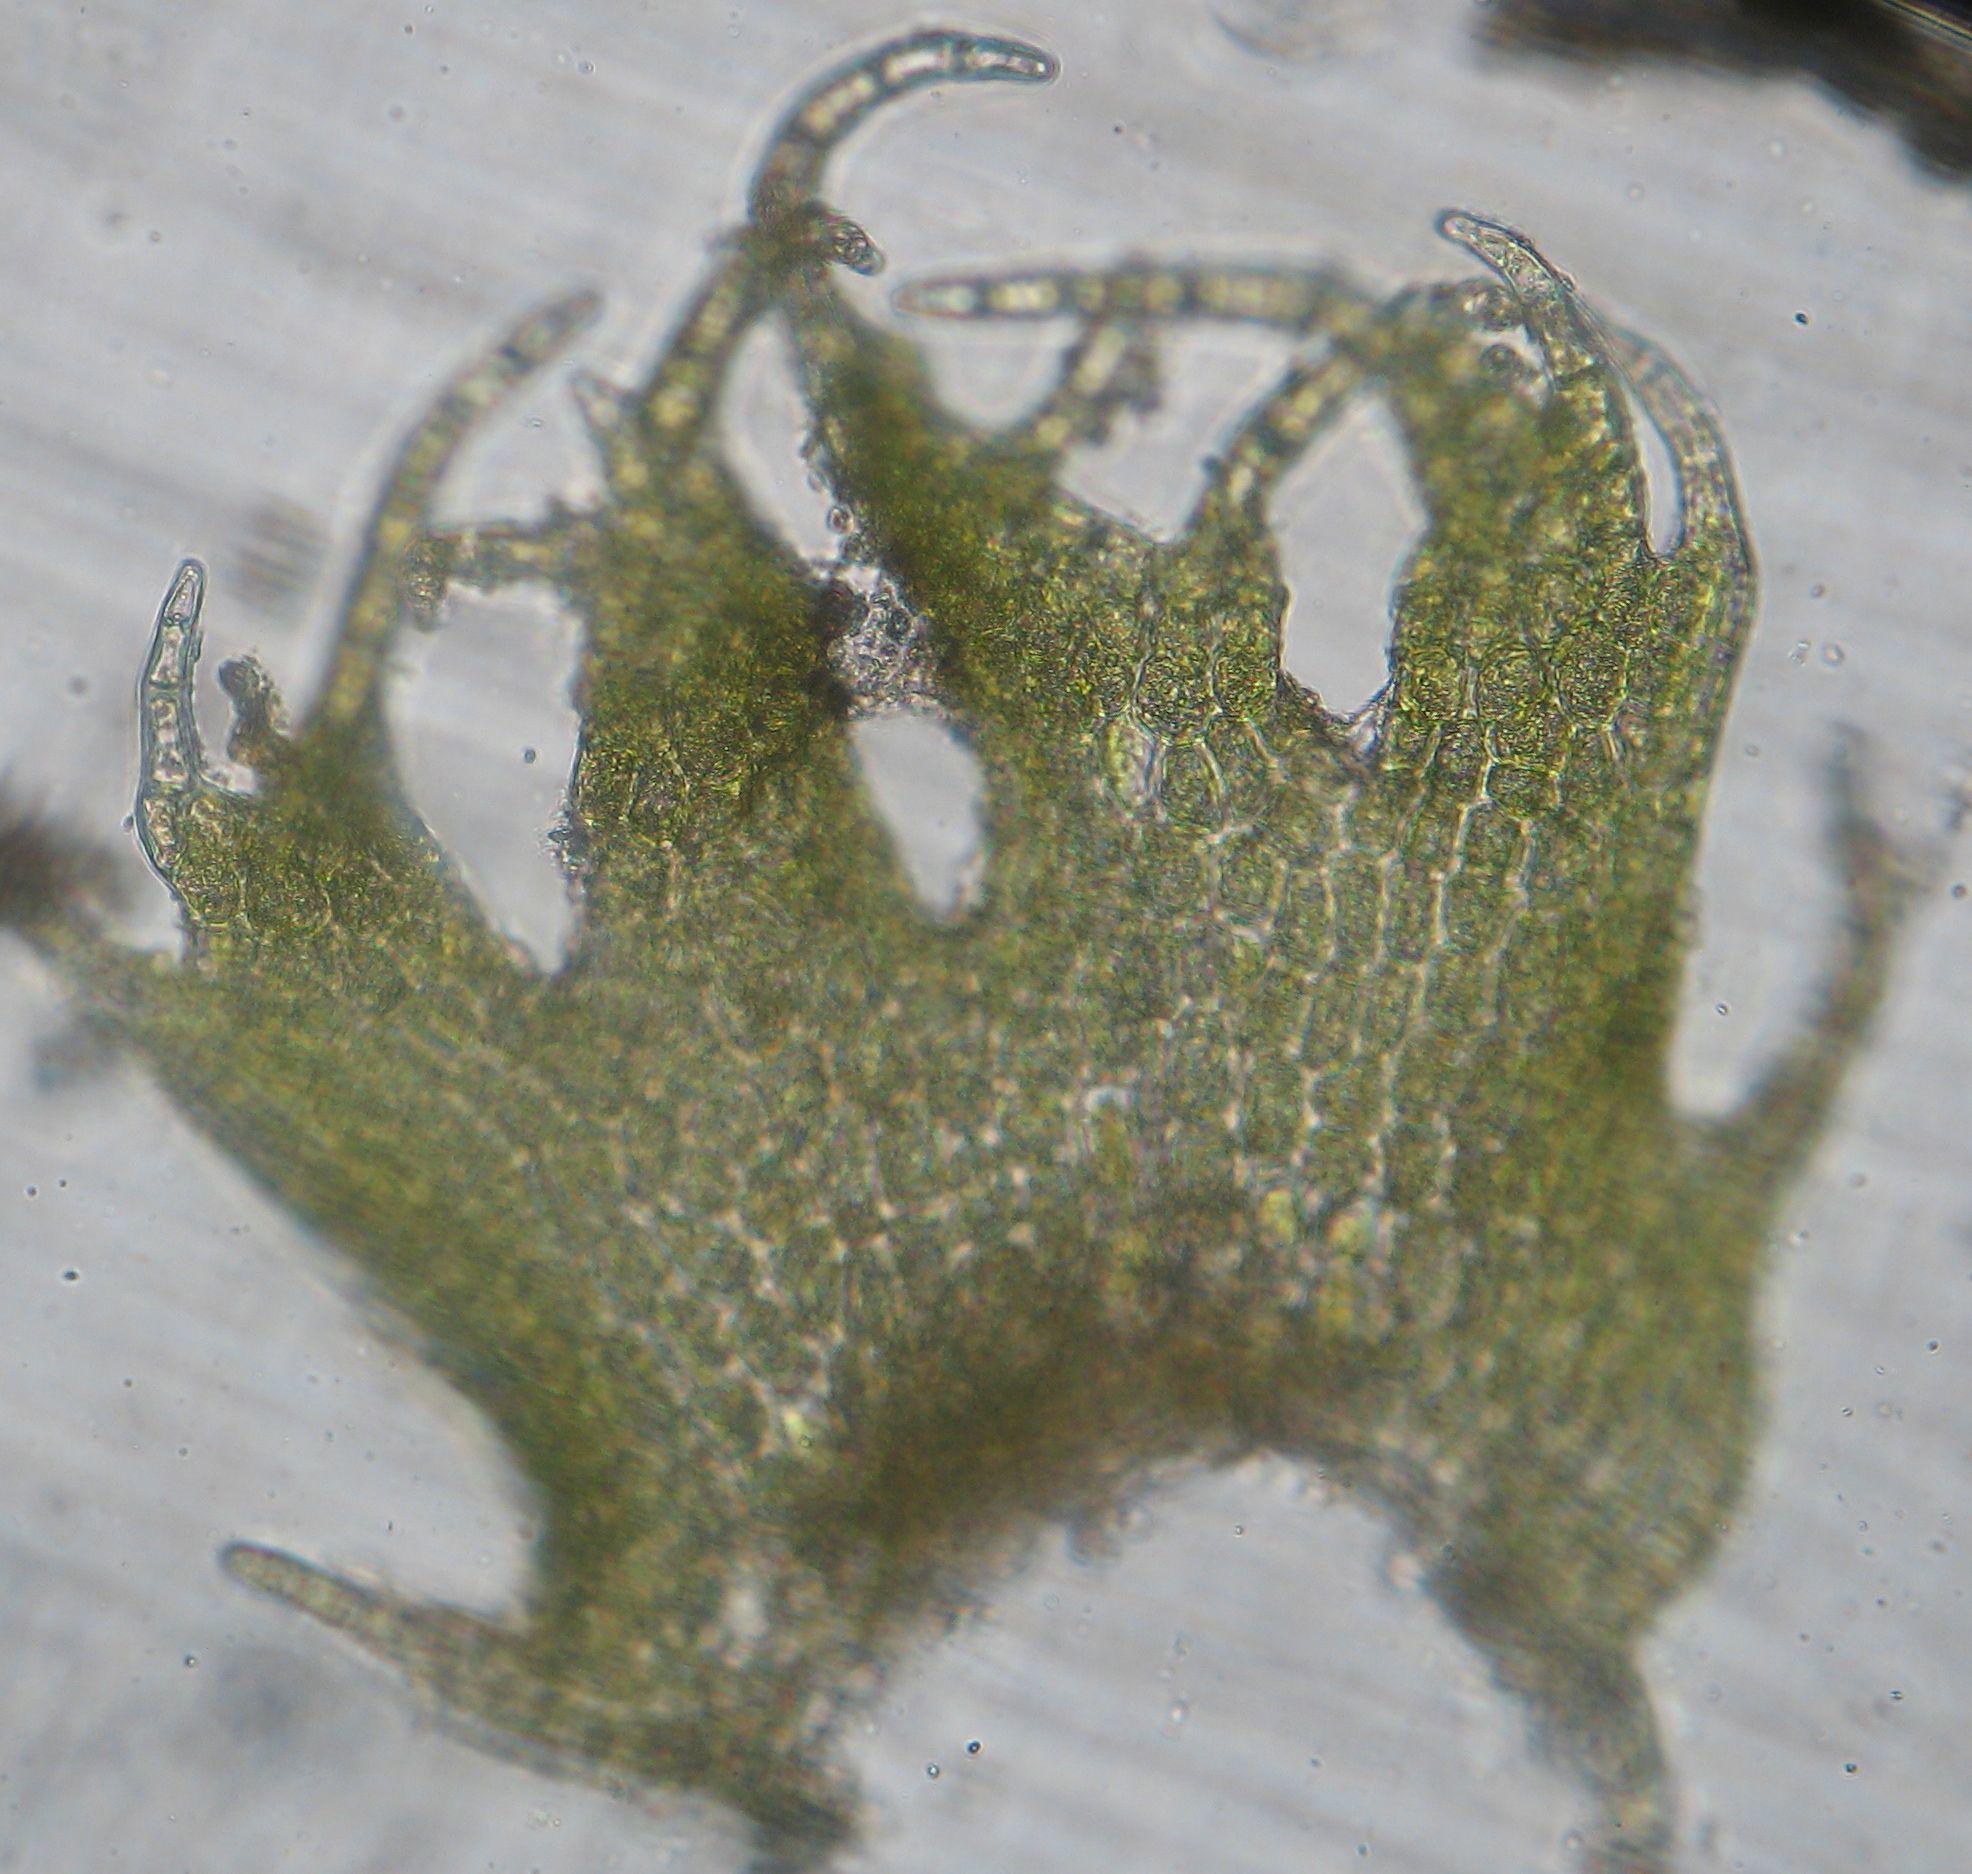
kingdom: Plantae
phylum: Marchantiophyta
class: Jungermanniopsida
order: Porellales
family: Lepidolaenaceae
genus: Lepidolaena
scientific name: Lepidolaena taylorii
